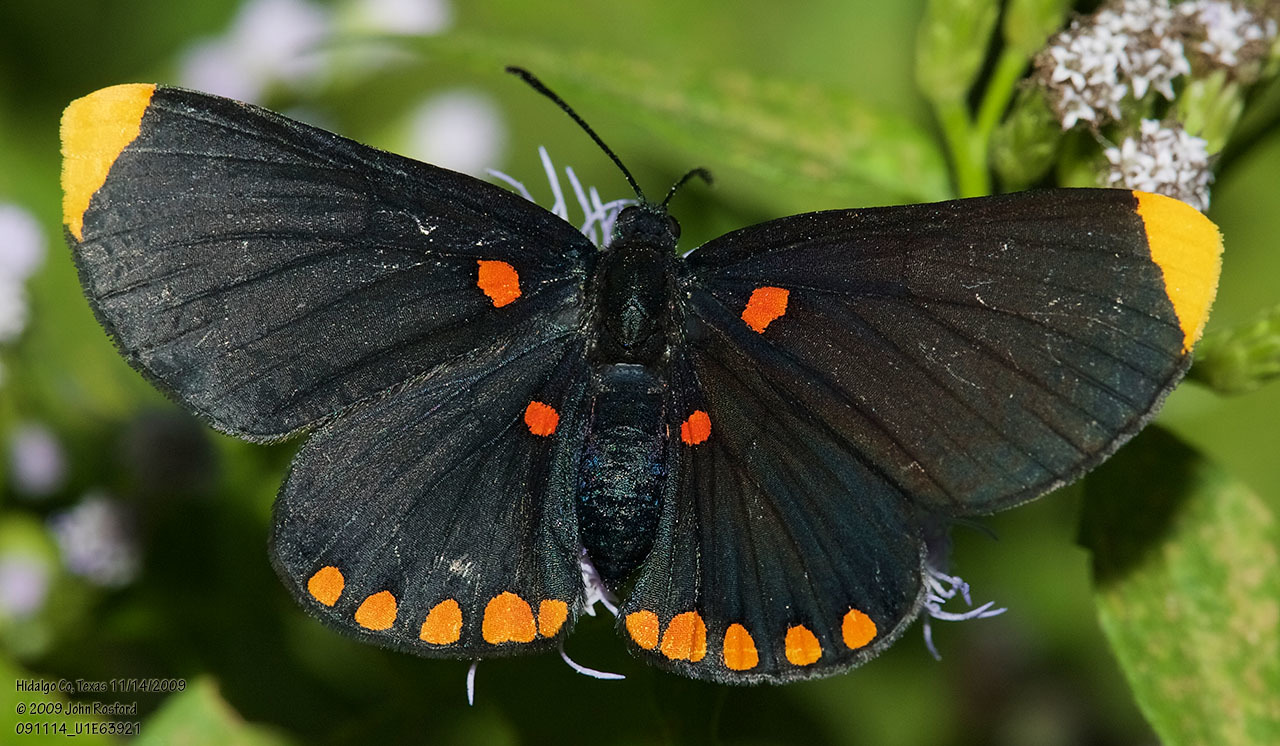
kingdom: Animalia
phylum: Arthropoda
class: Insecta
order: Lepidoptera
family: Lycaenidae
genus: Melanis
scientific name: Melanis pixe
